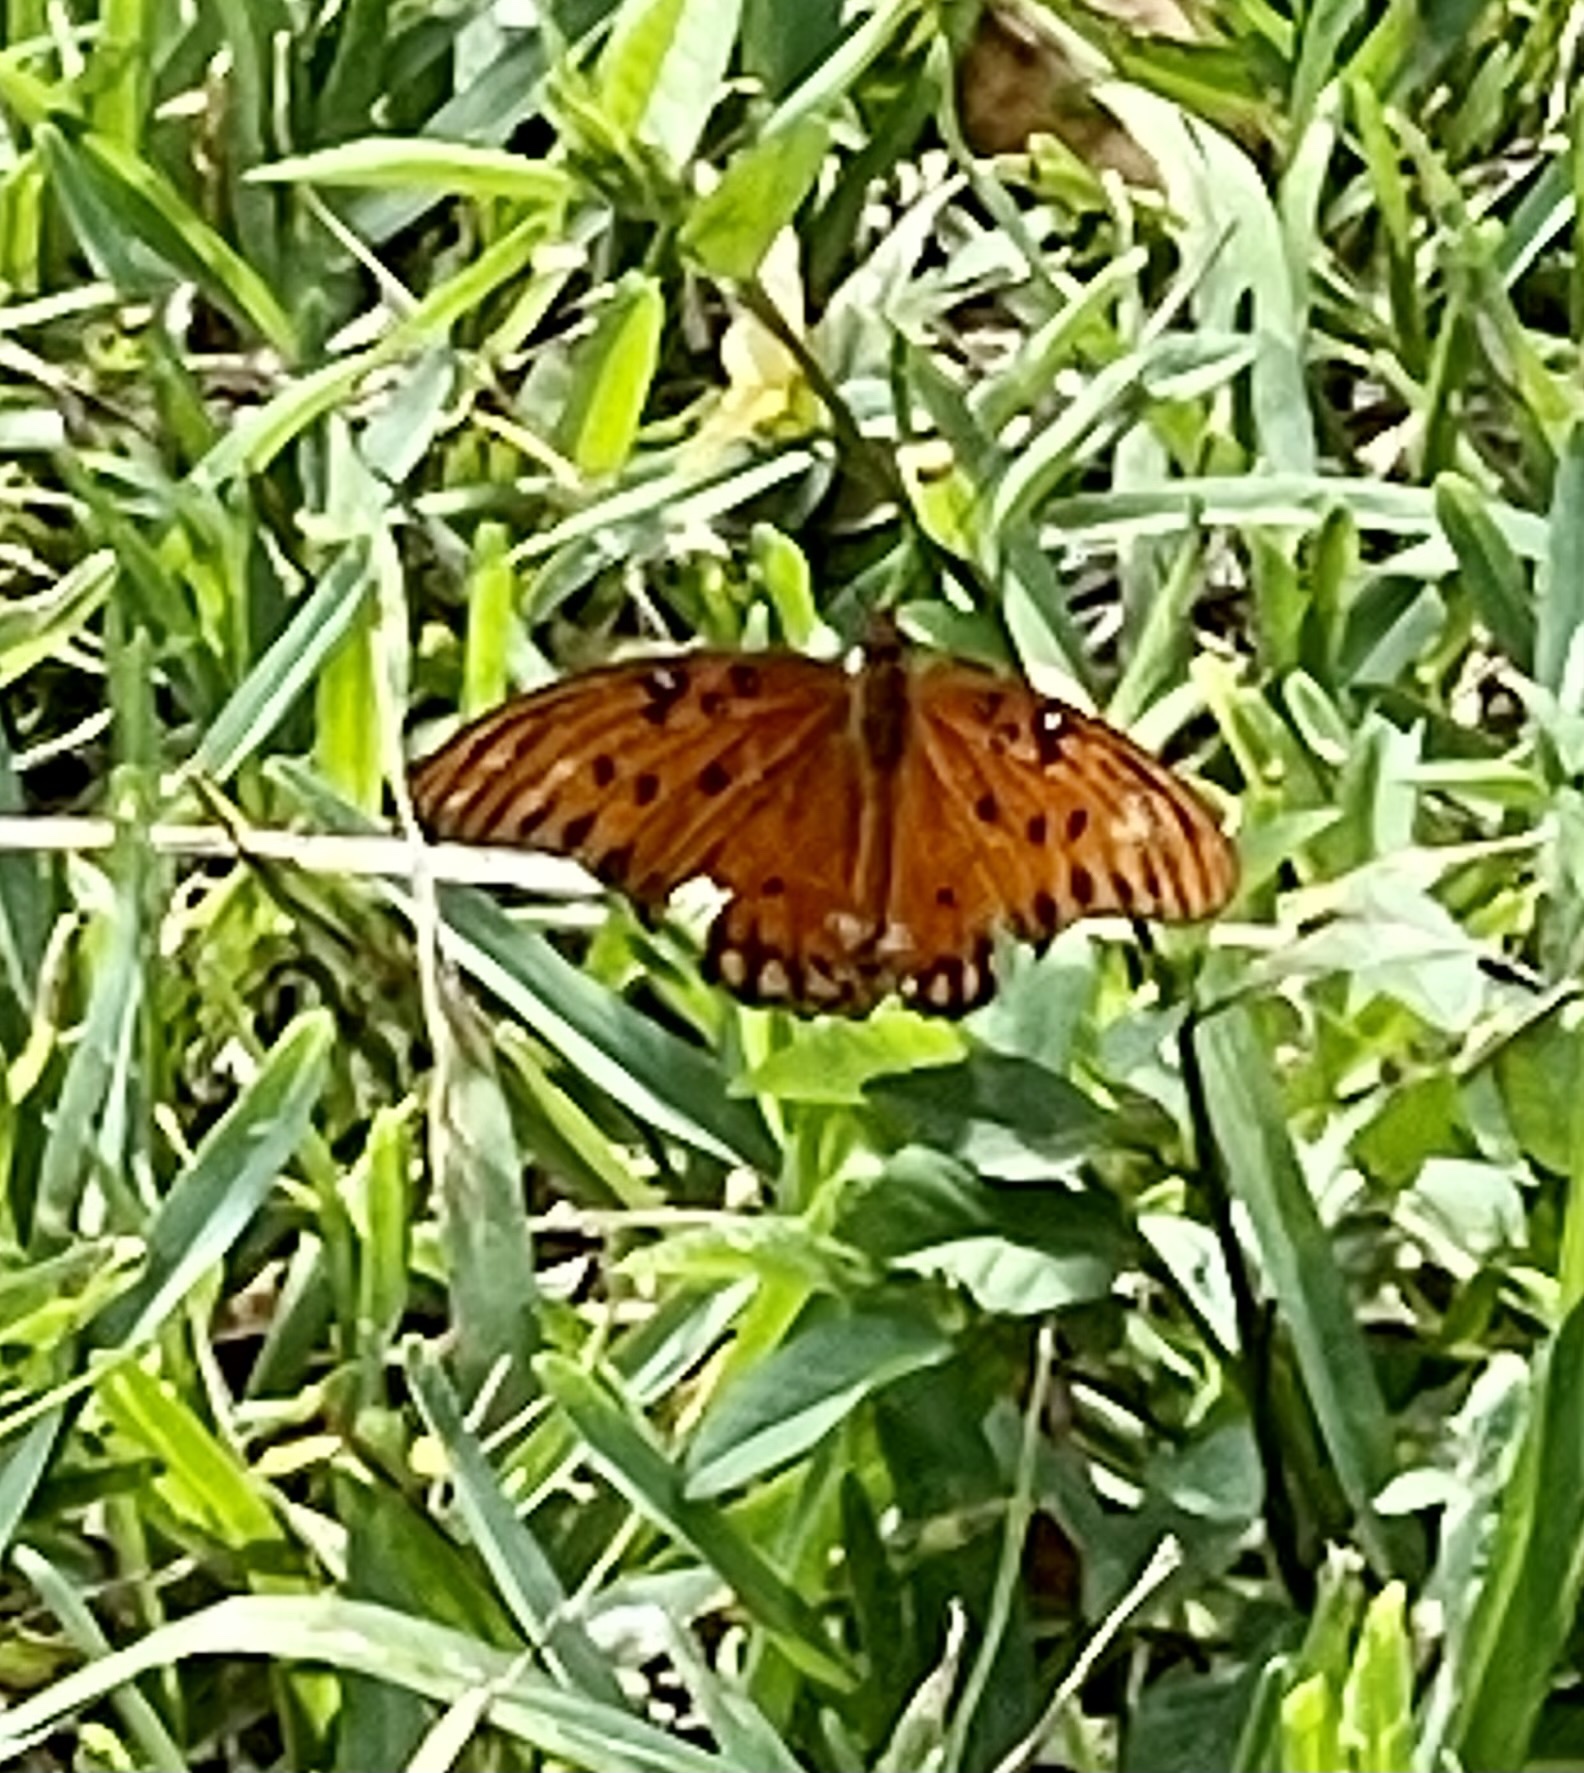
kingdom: Animalia
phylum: Arthropoda
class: Insecta
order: Lepidoptera
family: Nymphalidae
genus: Dione
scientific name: Dione vanillae
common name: Gulf fritillary
